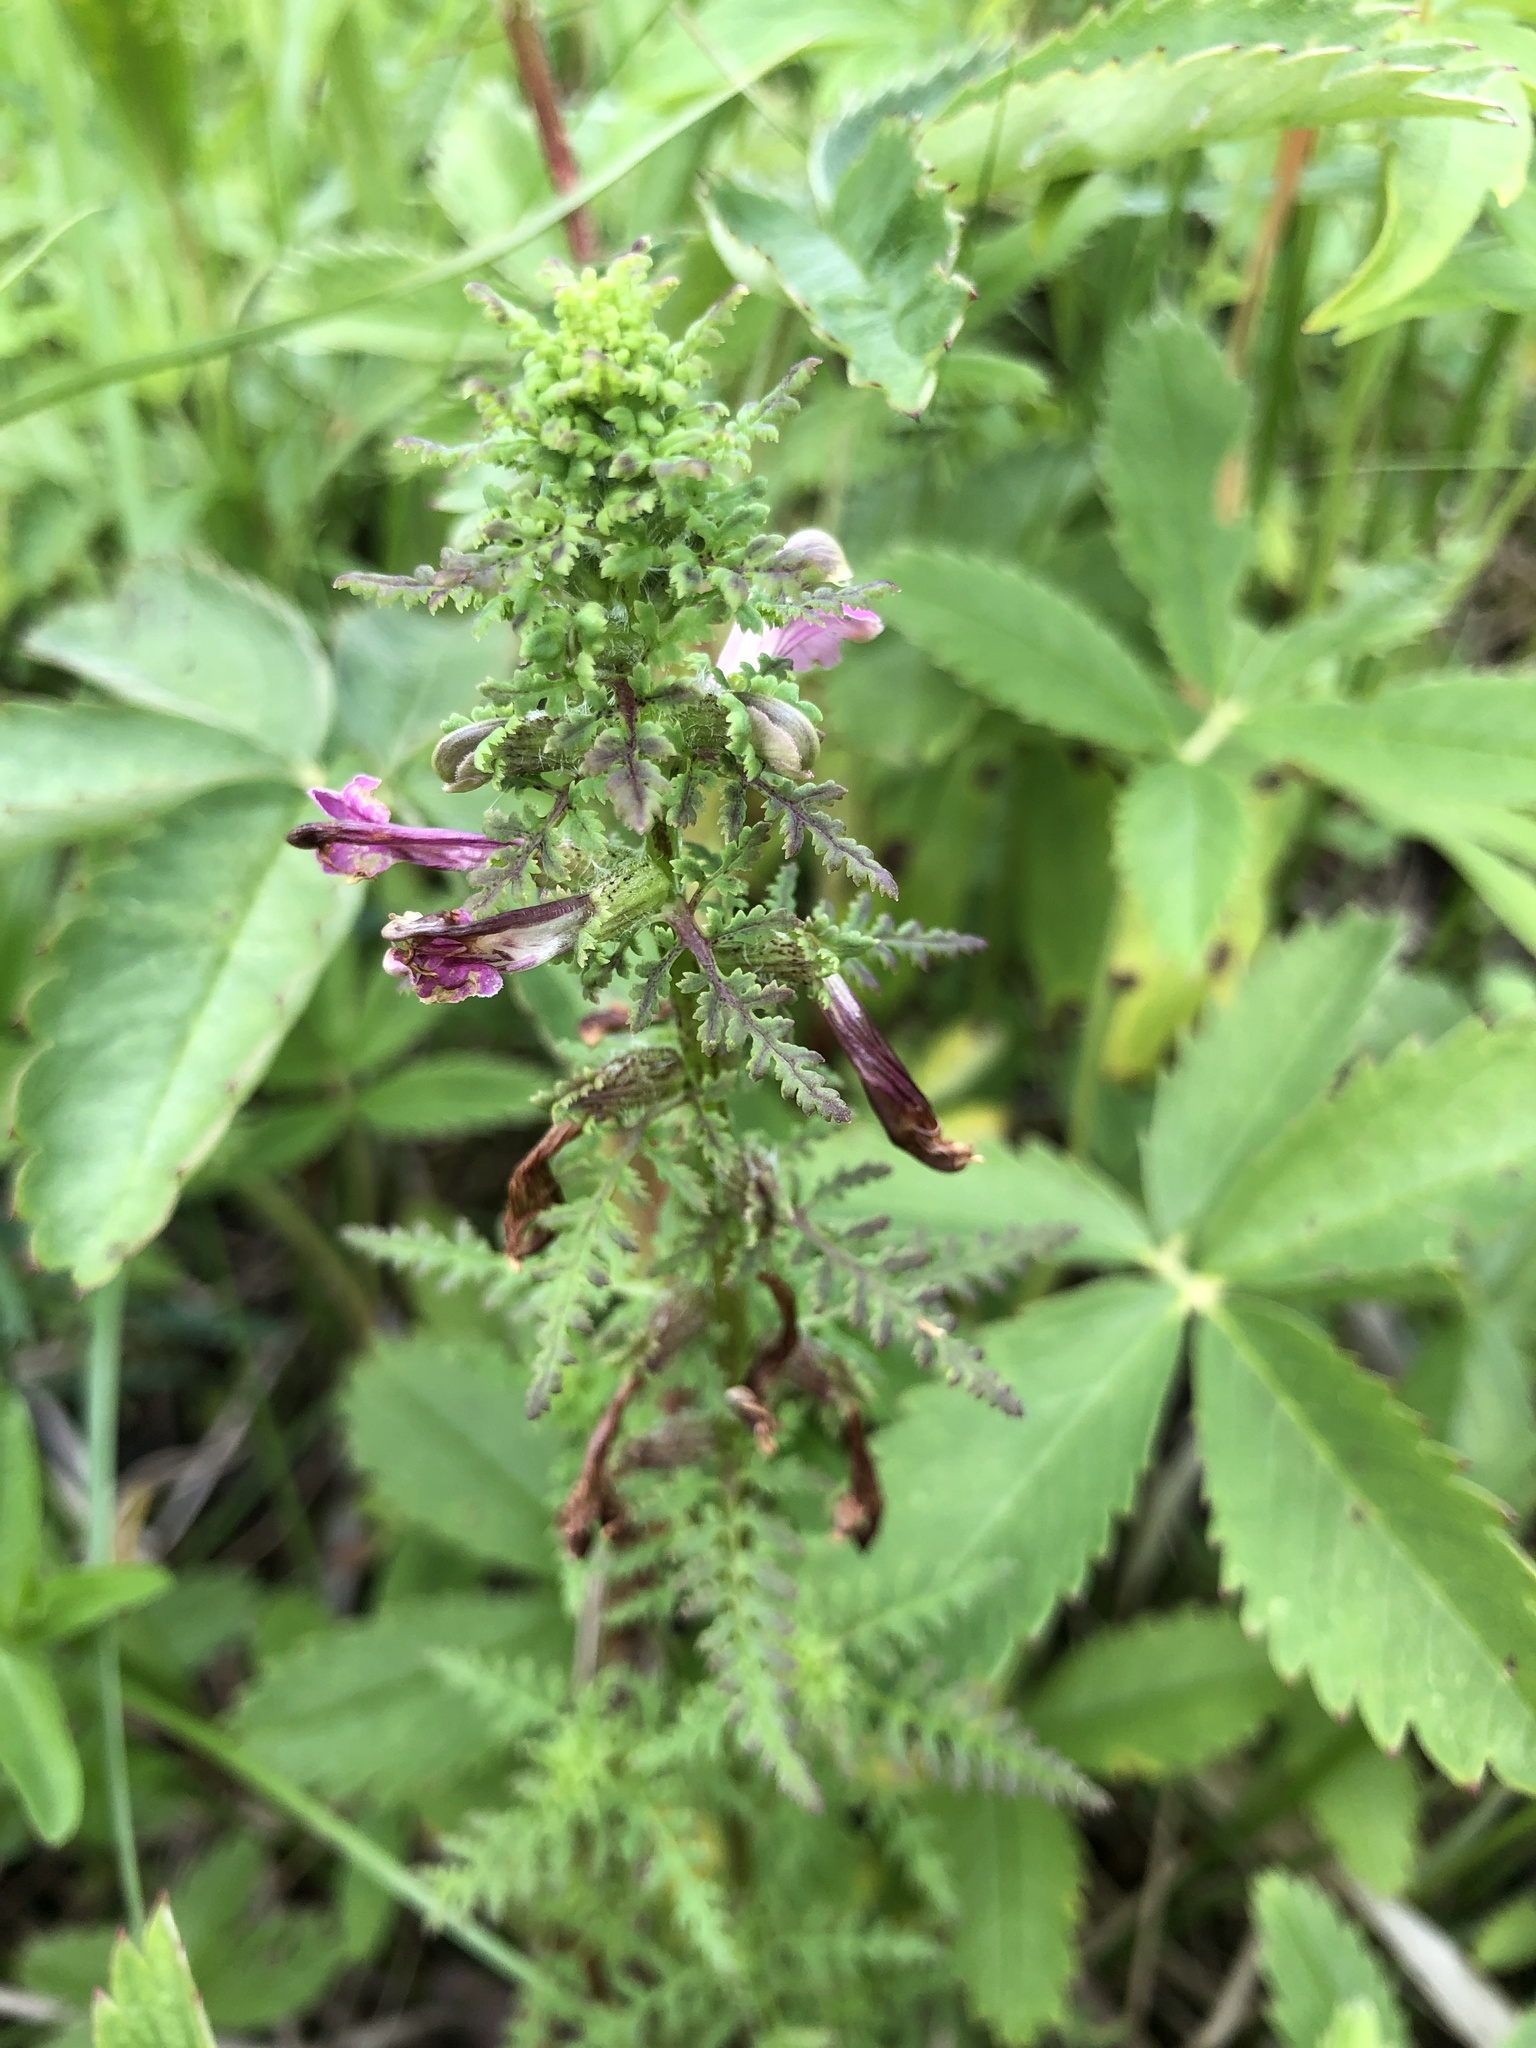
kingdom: Plantae
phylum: Tracheophyta
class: Magnoliopsida
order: Lamiales
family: Orobanchaceae
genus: Pedicularis
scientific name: Pedicularis palustris
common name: Marsh lousewort
